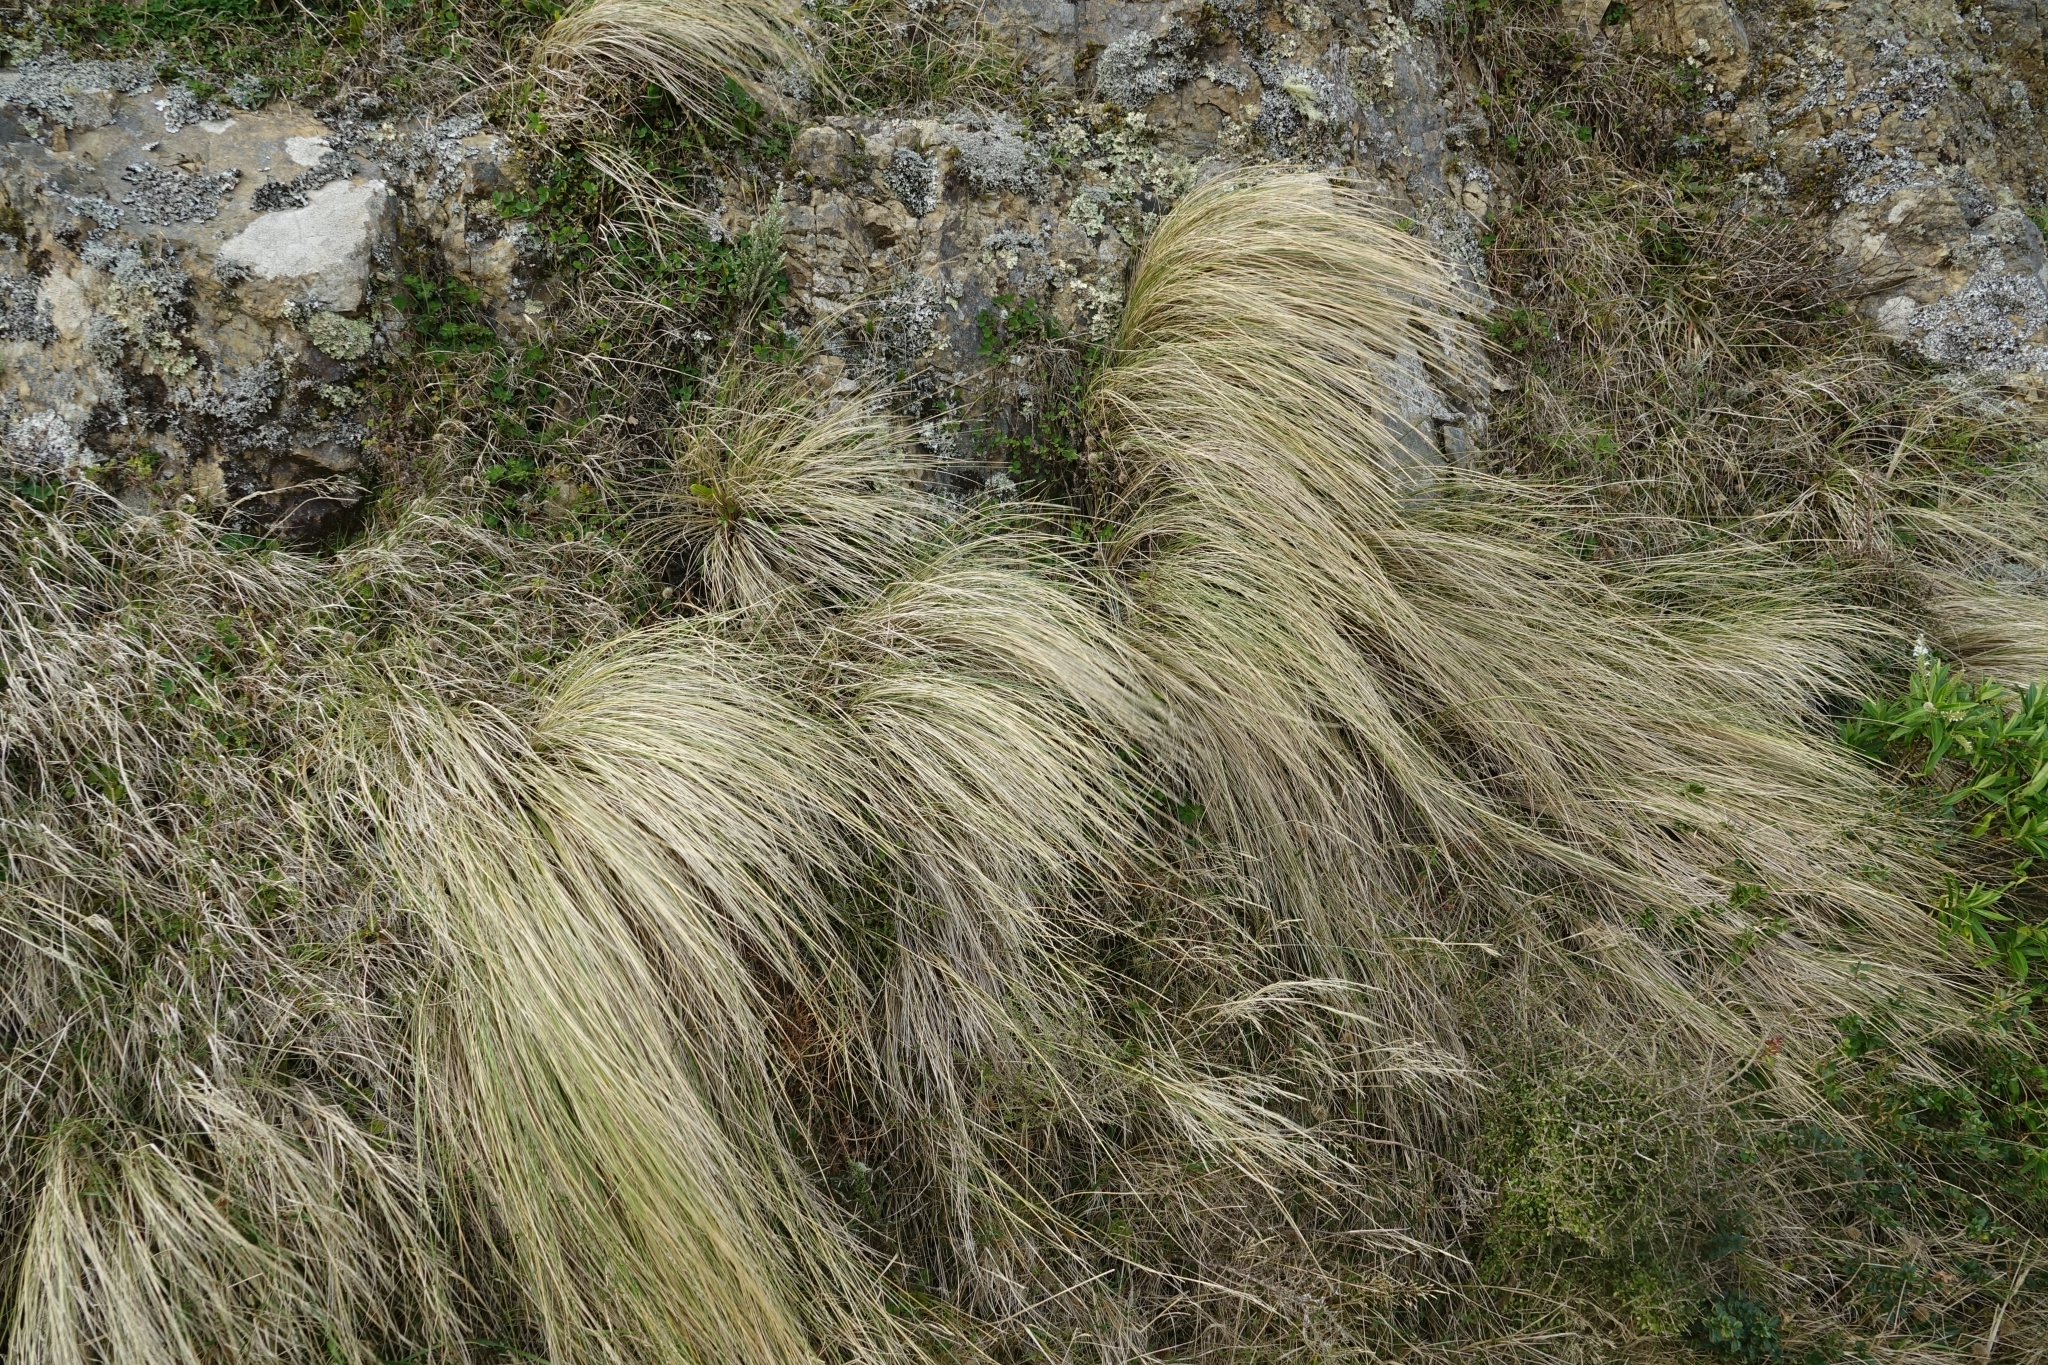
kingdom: Plantae
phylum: Tracheophyta
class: Liliopsida
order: Poales
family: Poaceae
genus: Poa
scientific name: Poa cita
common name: Silver tussock
